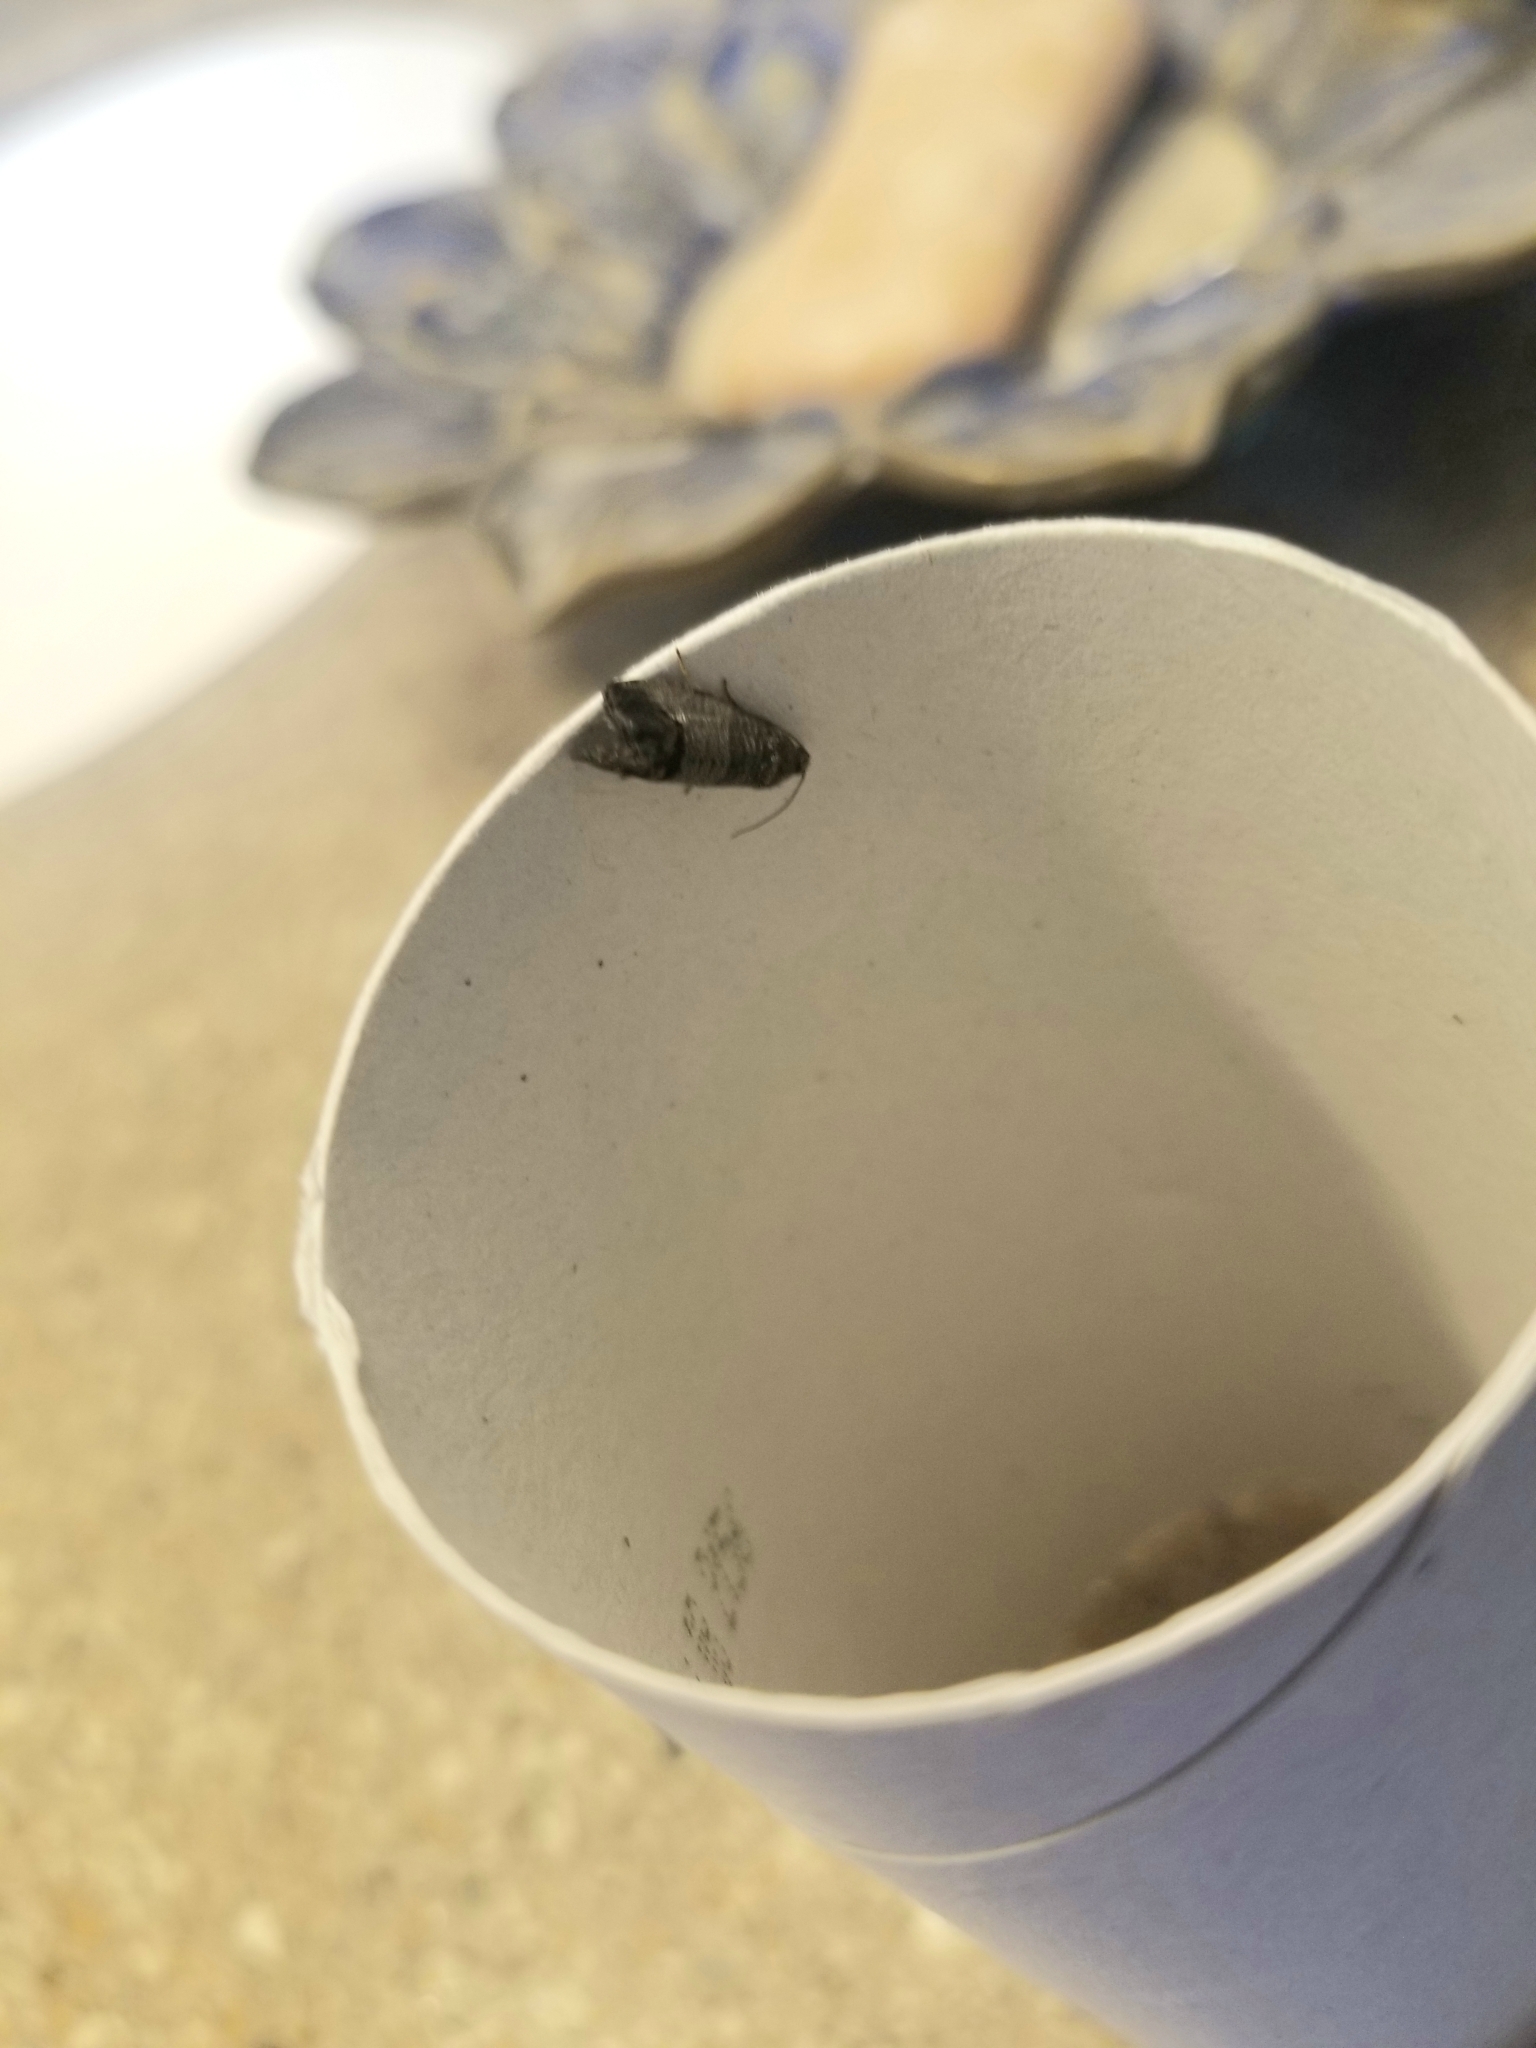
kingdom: Animalia
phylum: Arthropoda
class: Insecta
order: Lepidoptera
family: Tortricidae
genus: Cydia
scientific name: Cydia pomonella
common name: Codling moth
